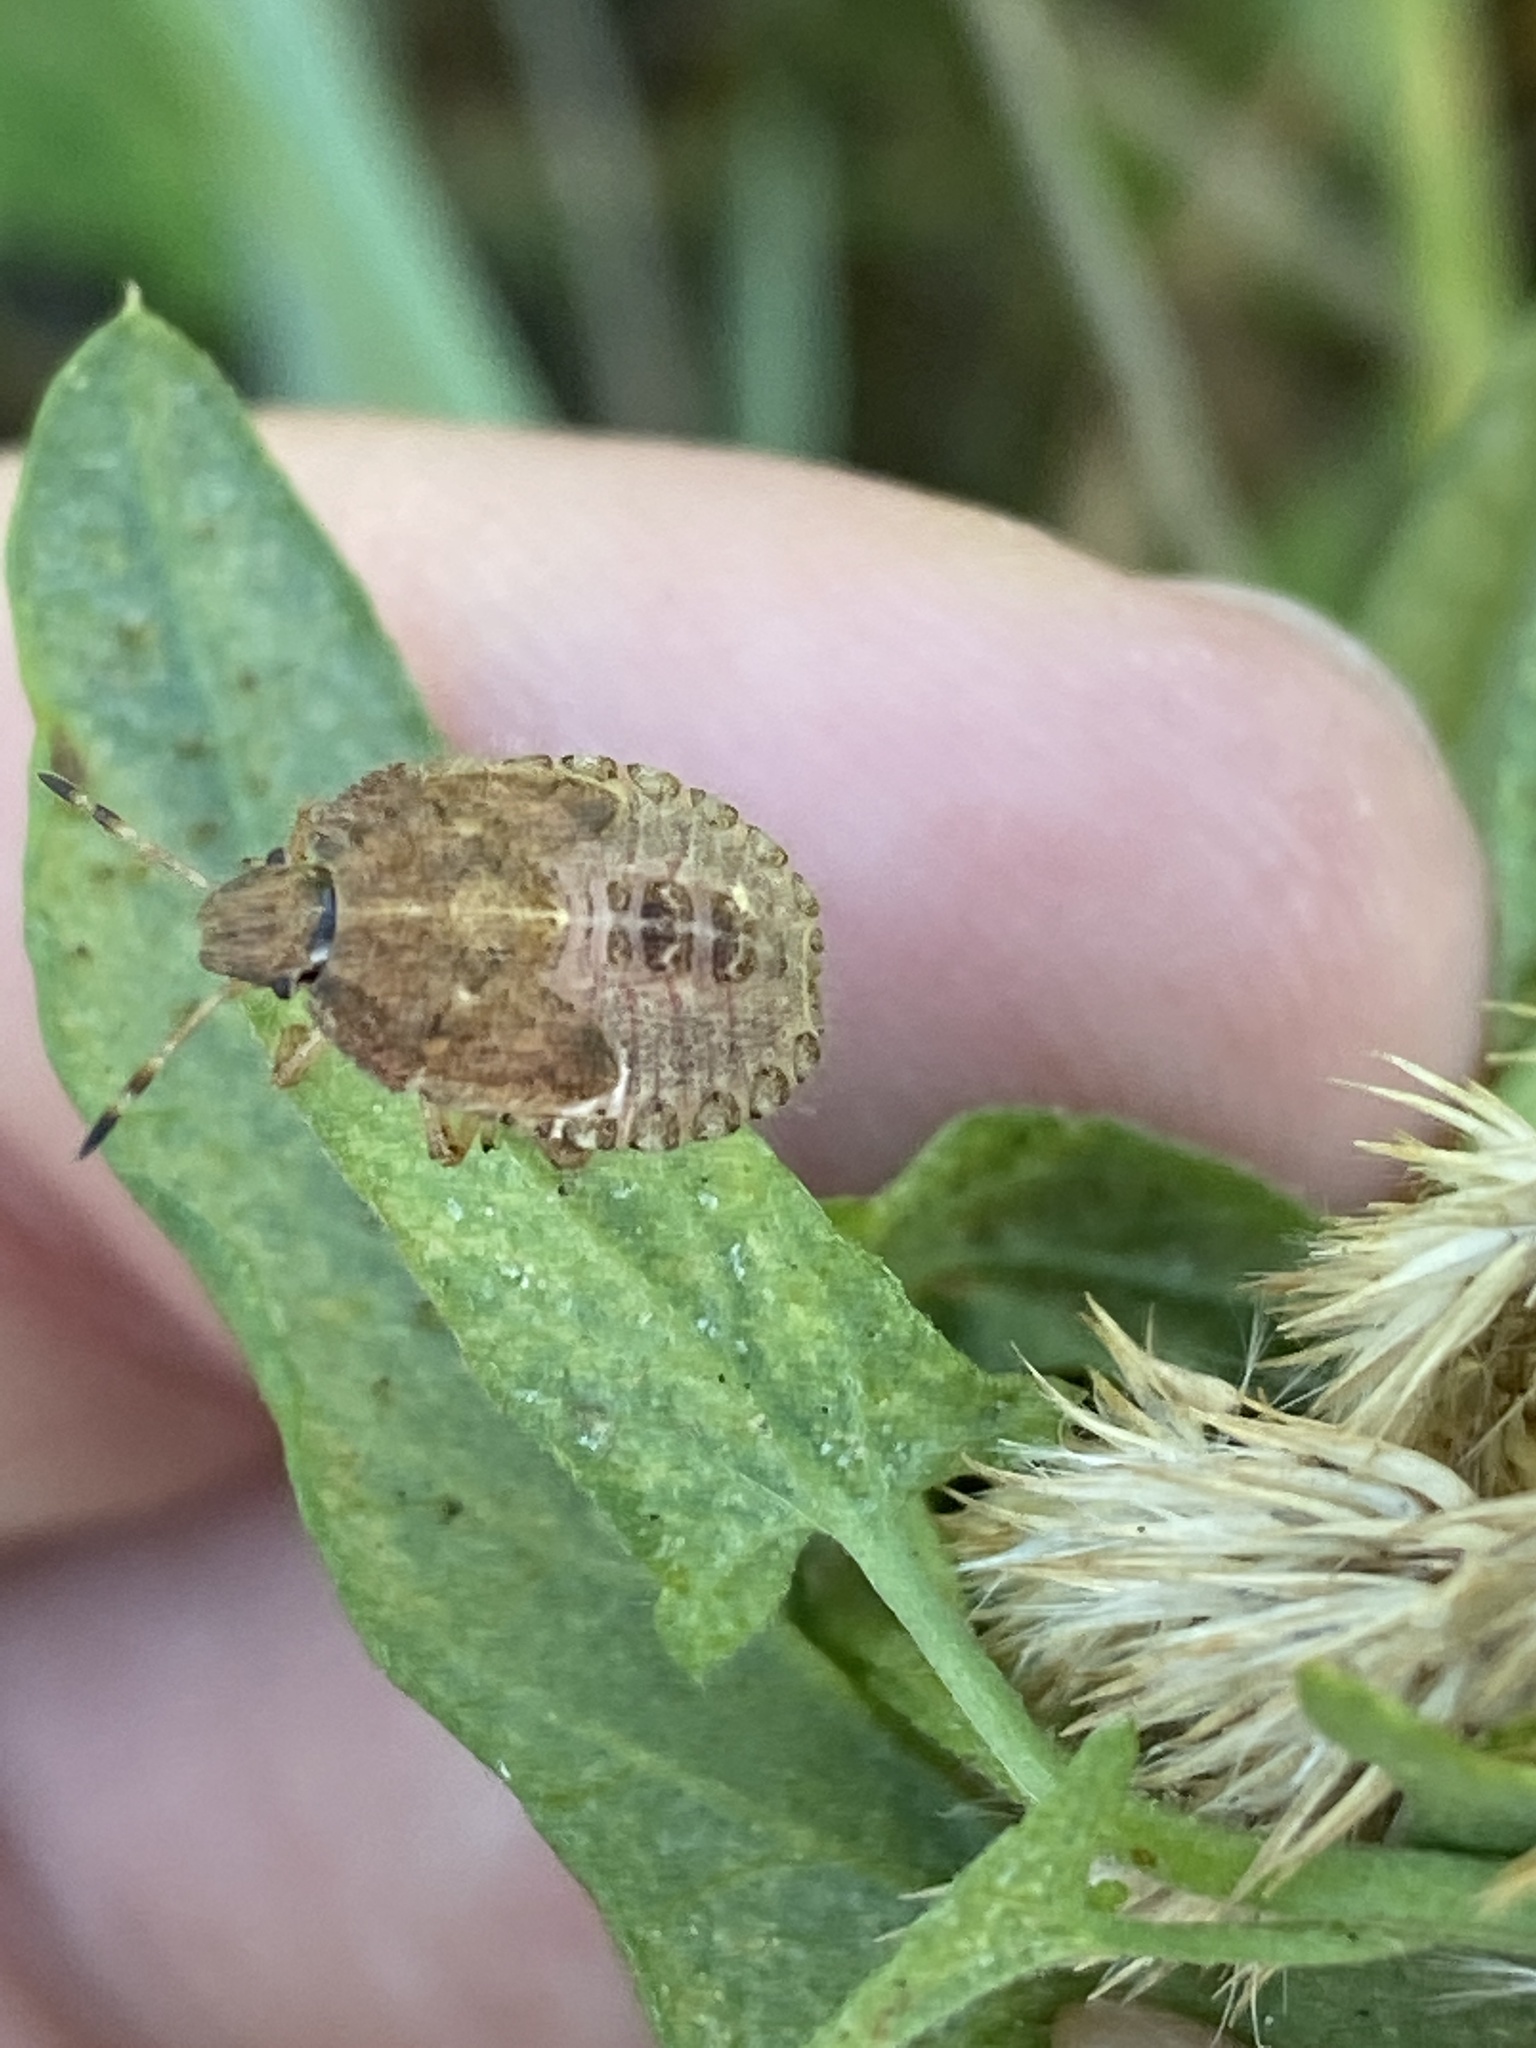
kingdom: Animalia
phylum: Arthropoda
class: Insecta
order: Hemiptera
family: Pentatomidae
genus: Dolycoris
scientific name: Dolycoris baccarum
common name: Sloe bug
